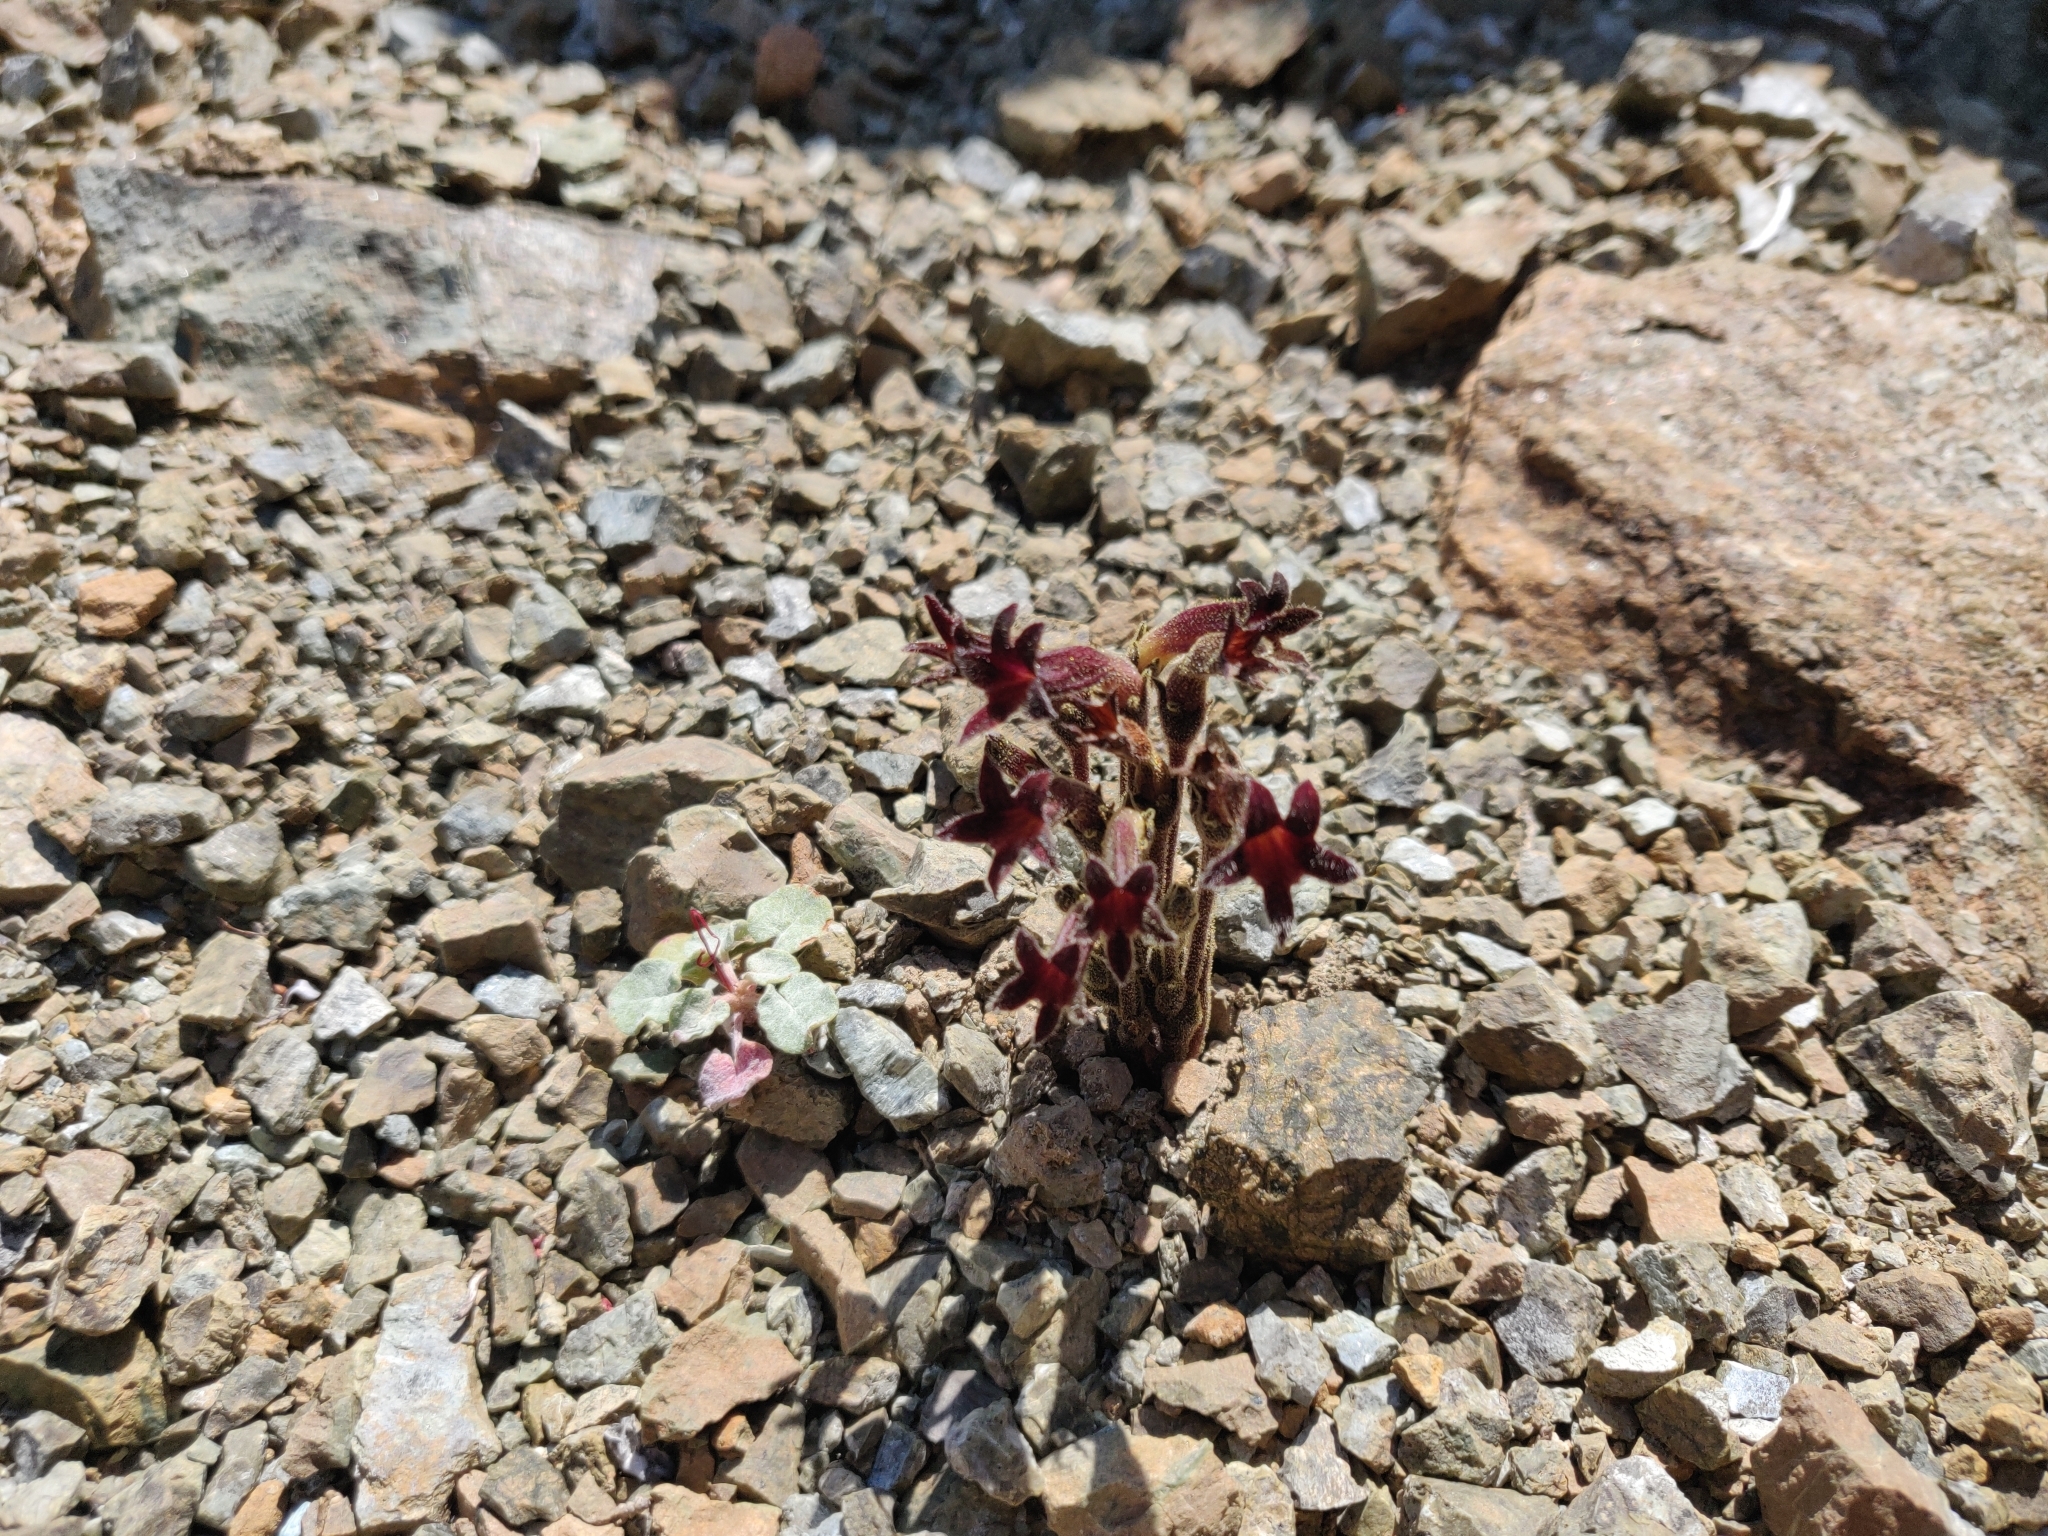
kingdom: Plantae
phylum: Tracheophyta
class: Magnoliopsida
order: Lamiales
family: Orobanchaceae
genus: Aphyllon
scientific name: Aphyllon franciscanum
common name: San francisco broomrape
